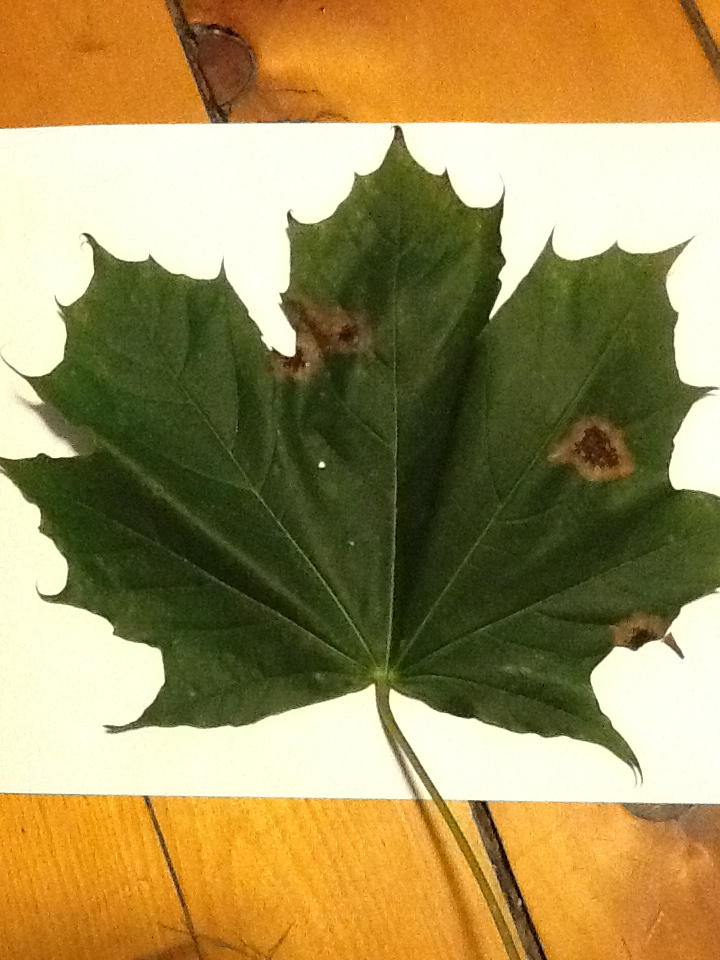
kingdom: Plantae
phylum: Tracheophyta
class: Magnoliopsida
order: Sapindales
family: Sapindaceae
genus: Acer
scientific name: Acer platanoides
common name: Norway maple
